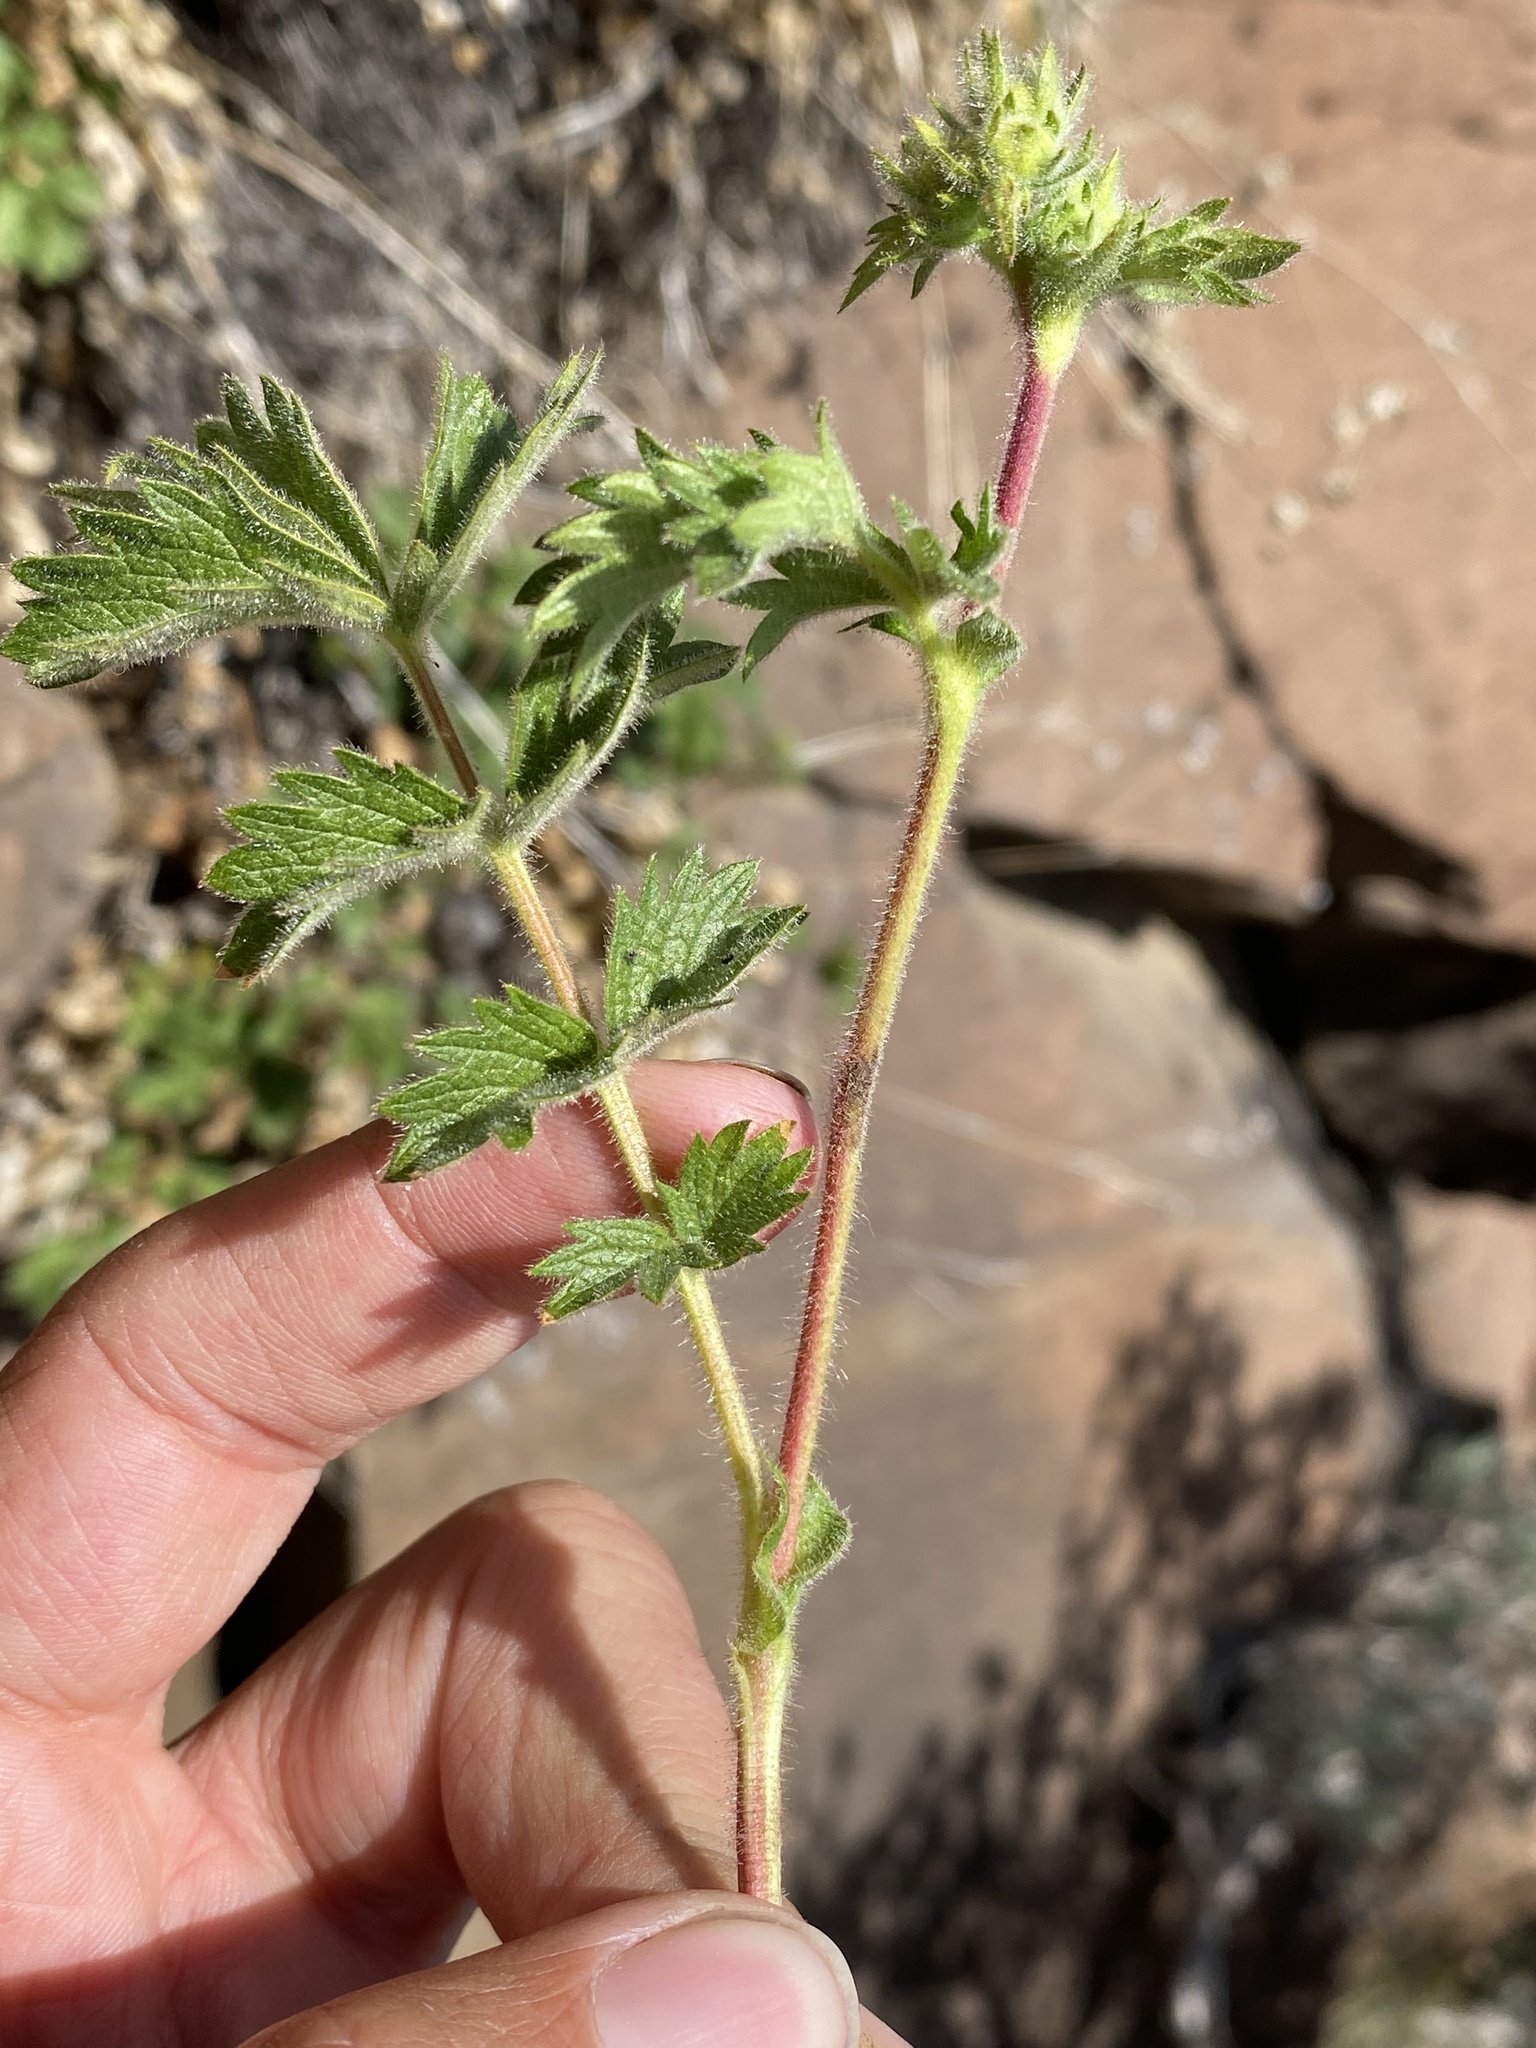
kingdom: Plantae
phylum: Tracheophyta
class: Magnoliopsida
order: Rosales
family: Rosaceae
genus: Drymocallis
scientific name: Drymocallis campanulata
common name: John day drymocallis
